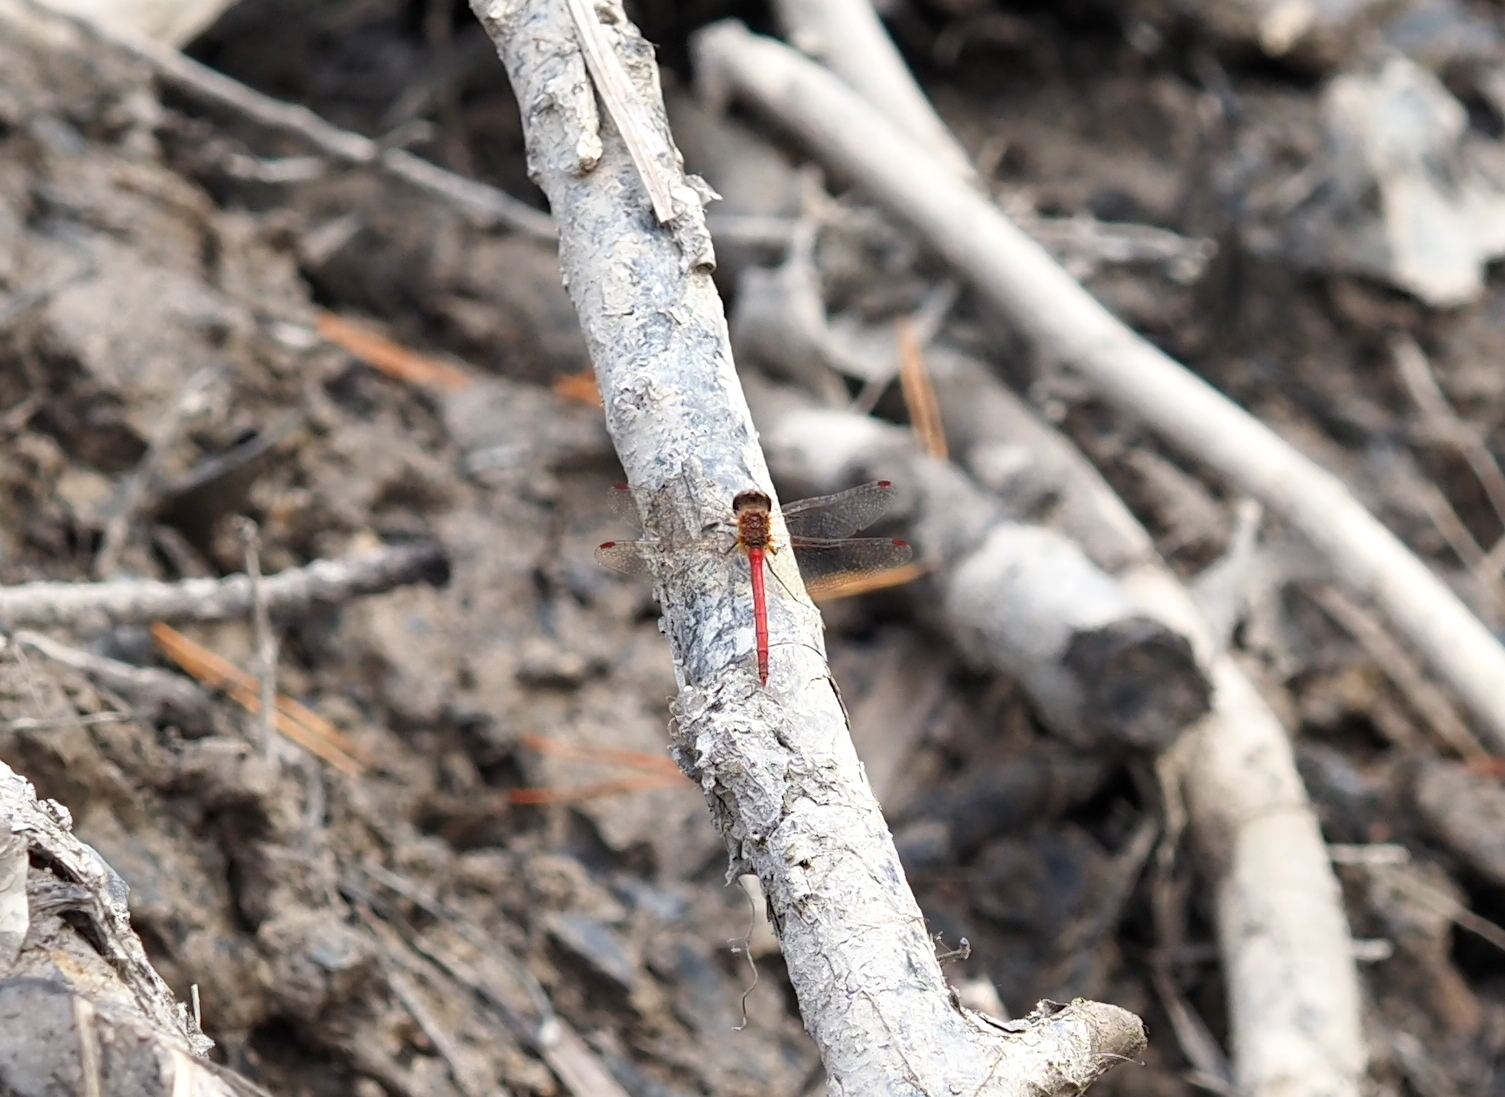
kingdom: Animalia
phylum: Arthropoda
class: Insecta
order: Odonata
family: Libellulidae
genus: Sympetrum
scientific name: Sympetrum vicinum
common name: Autumn meadowhawk
